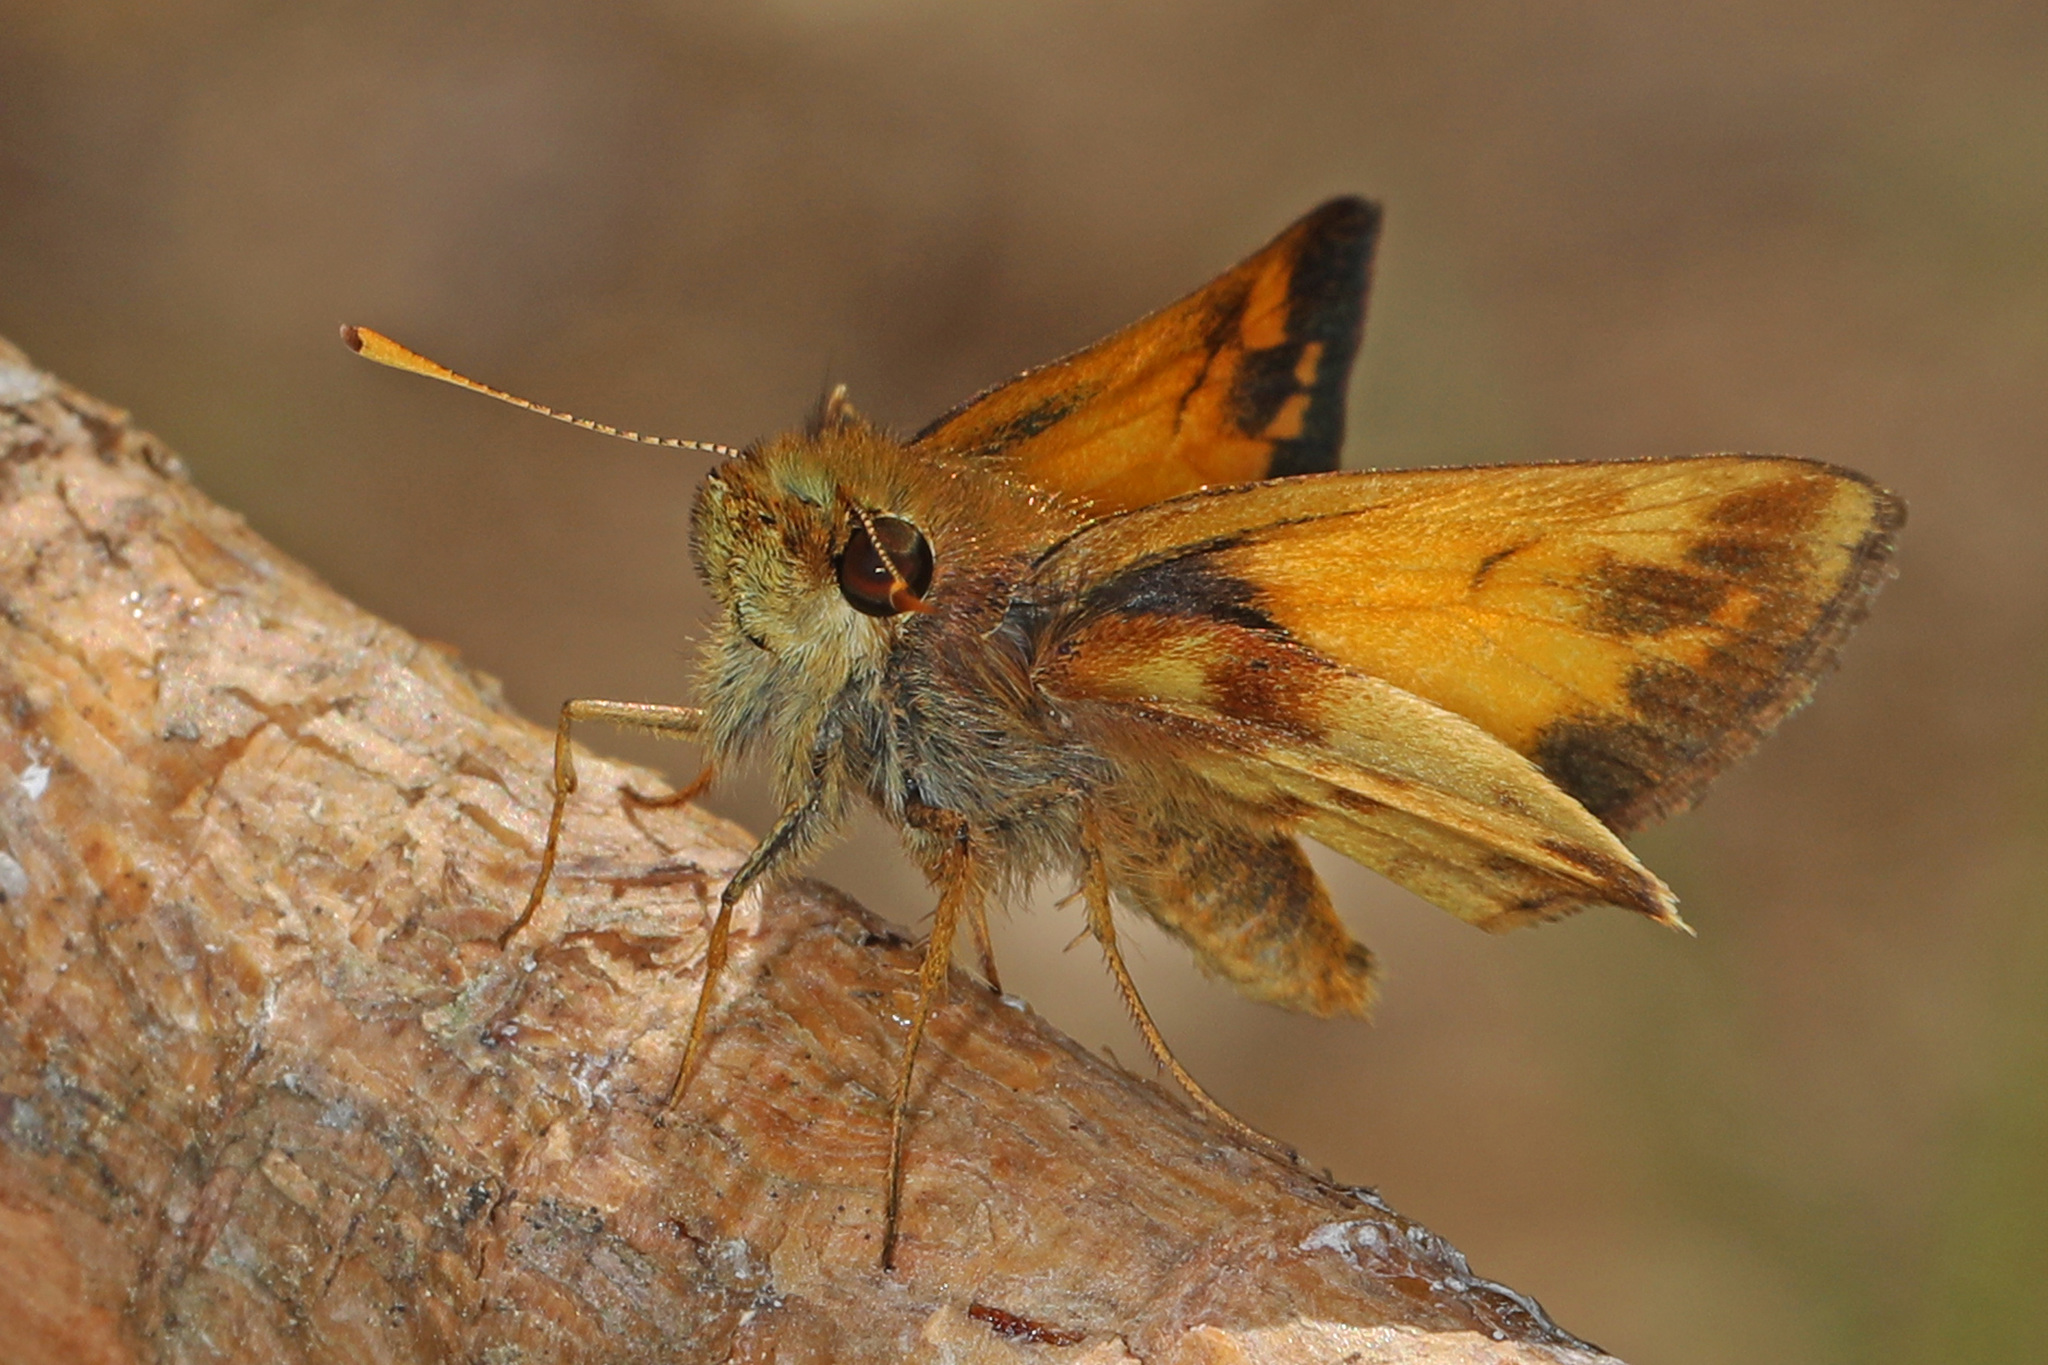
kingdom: Animalia
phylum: Arthropoda
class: Insecta
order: Lepidoptera
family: Hesperiidae
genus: Lon
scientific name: Lon zabulon
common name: Zabulon skipper
